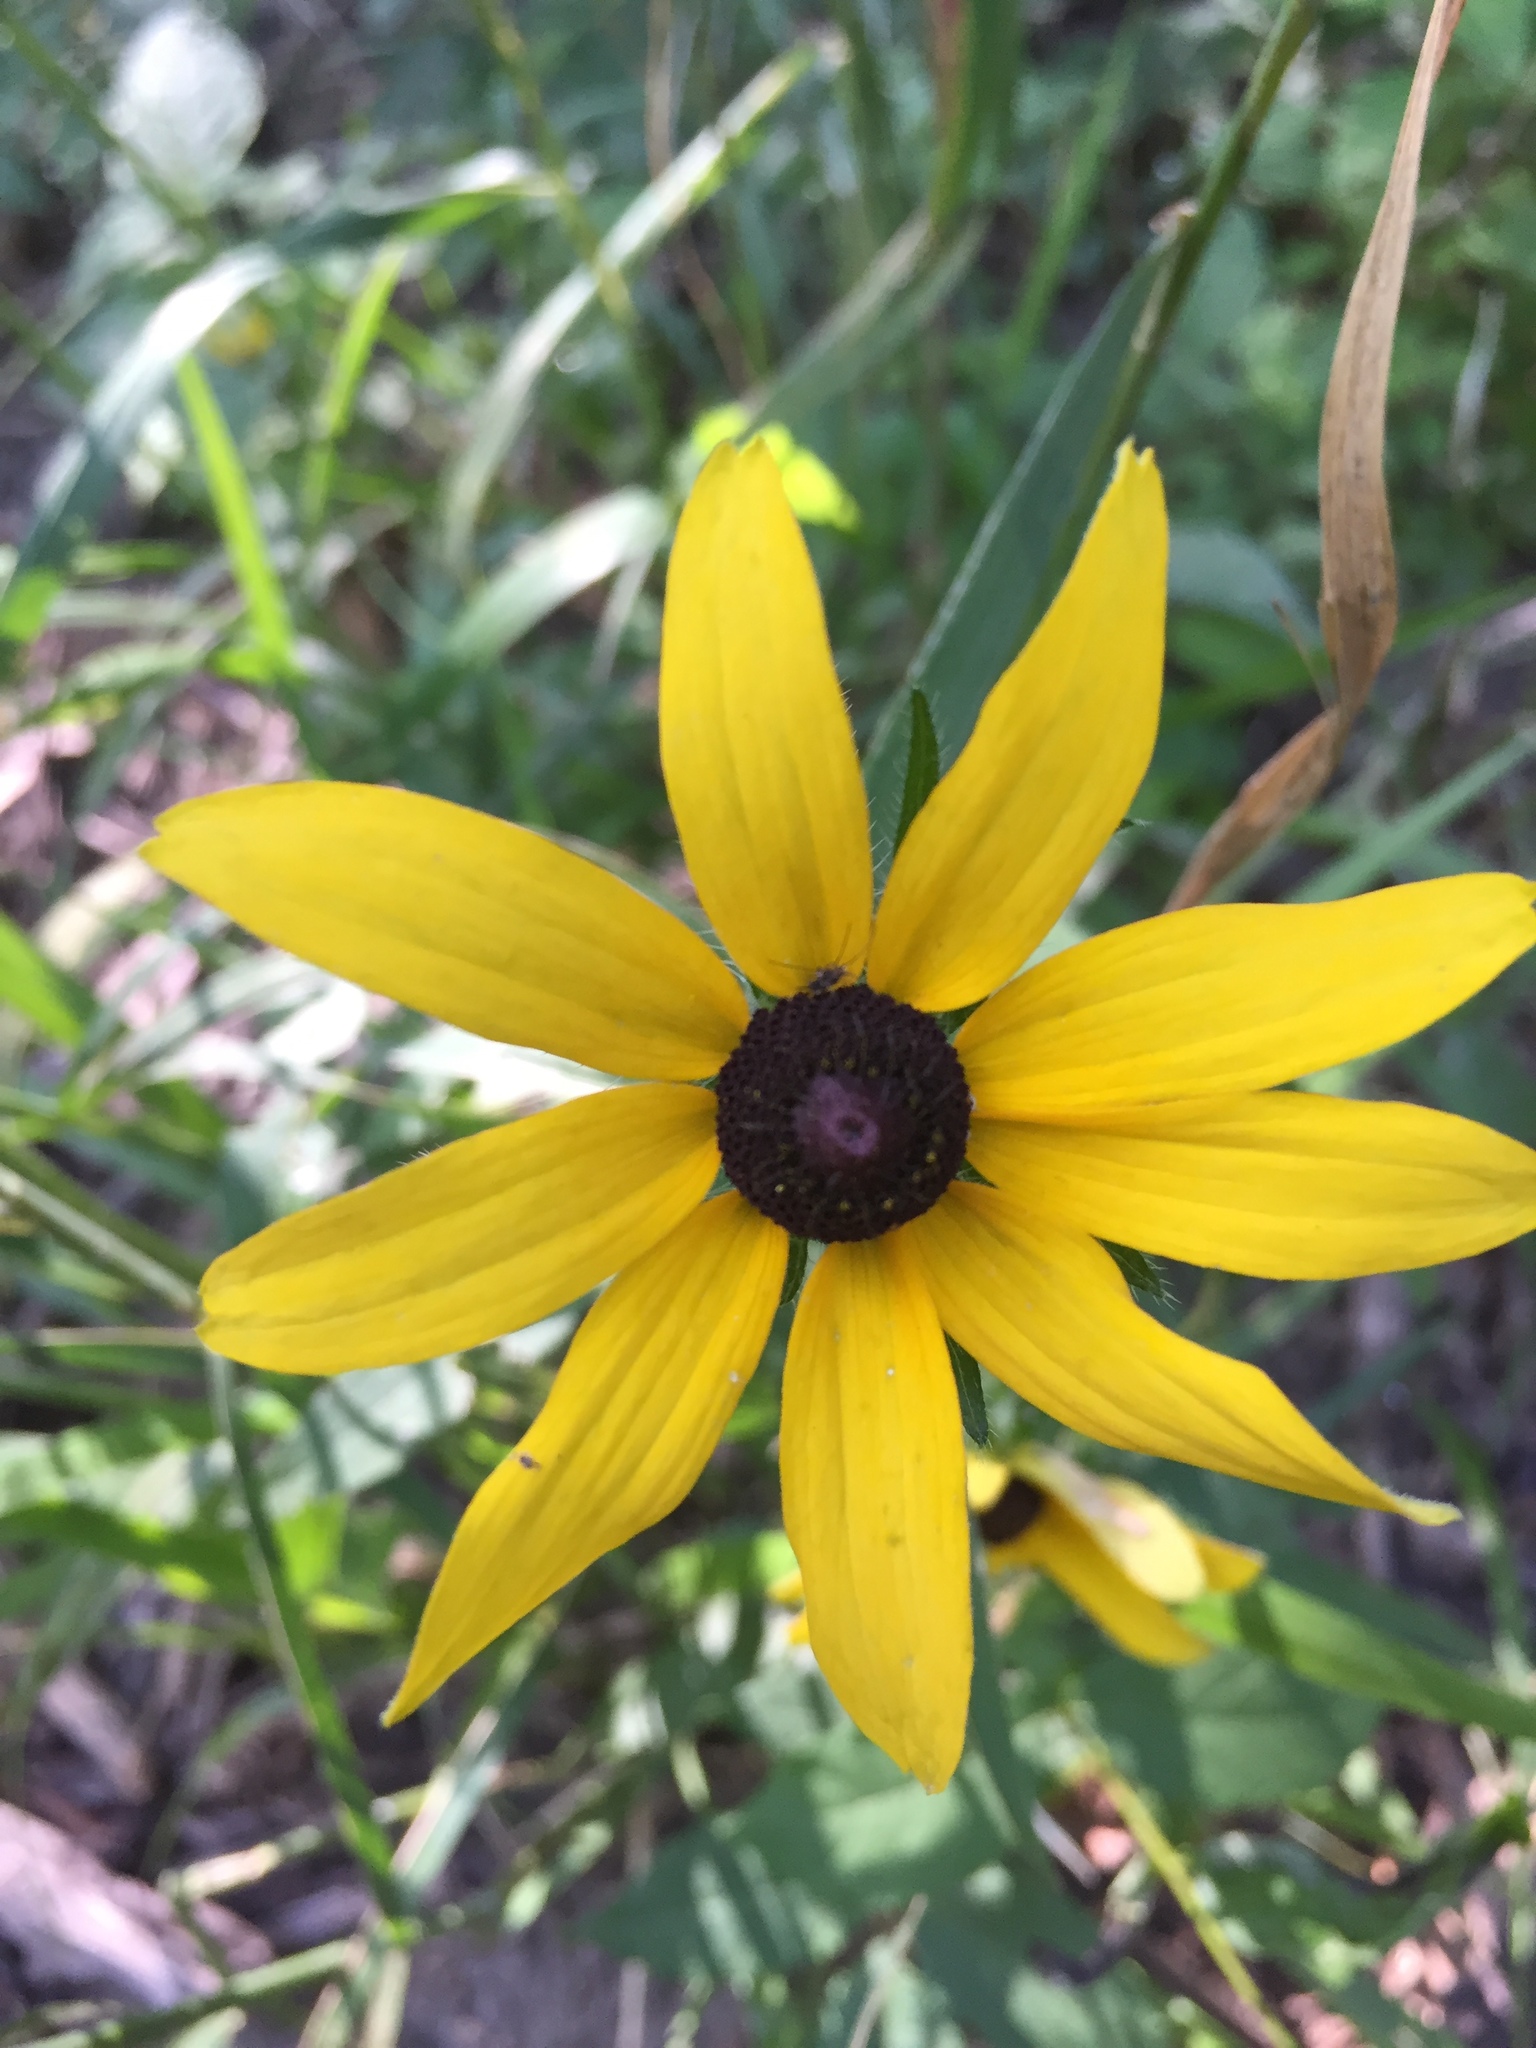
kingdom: Plantae
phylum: Tracheophyta
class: Magnoliopsida
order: Asterales
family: Asteraceae
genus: Rudbeckia
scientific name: Rudbeckia hirta
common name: Black-eyed-susan
